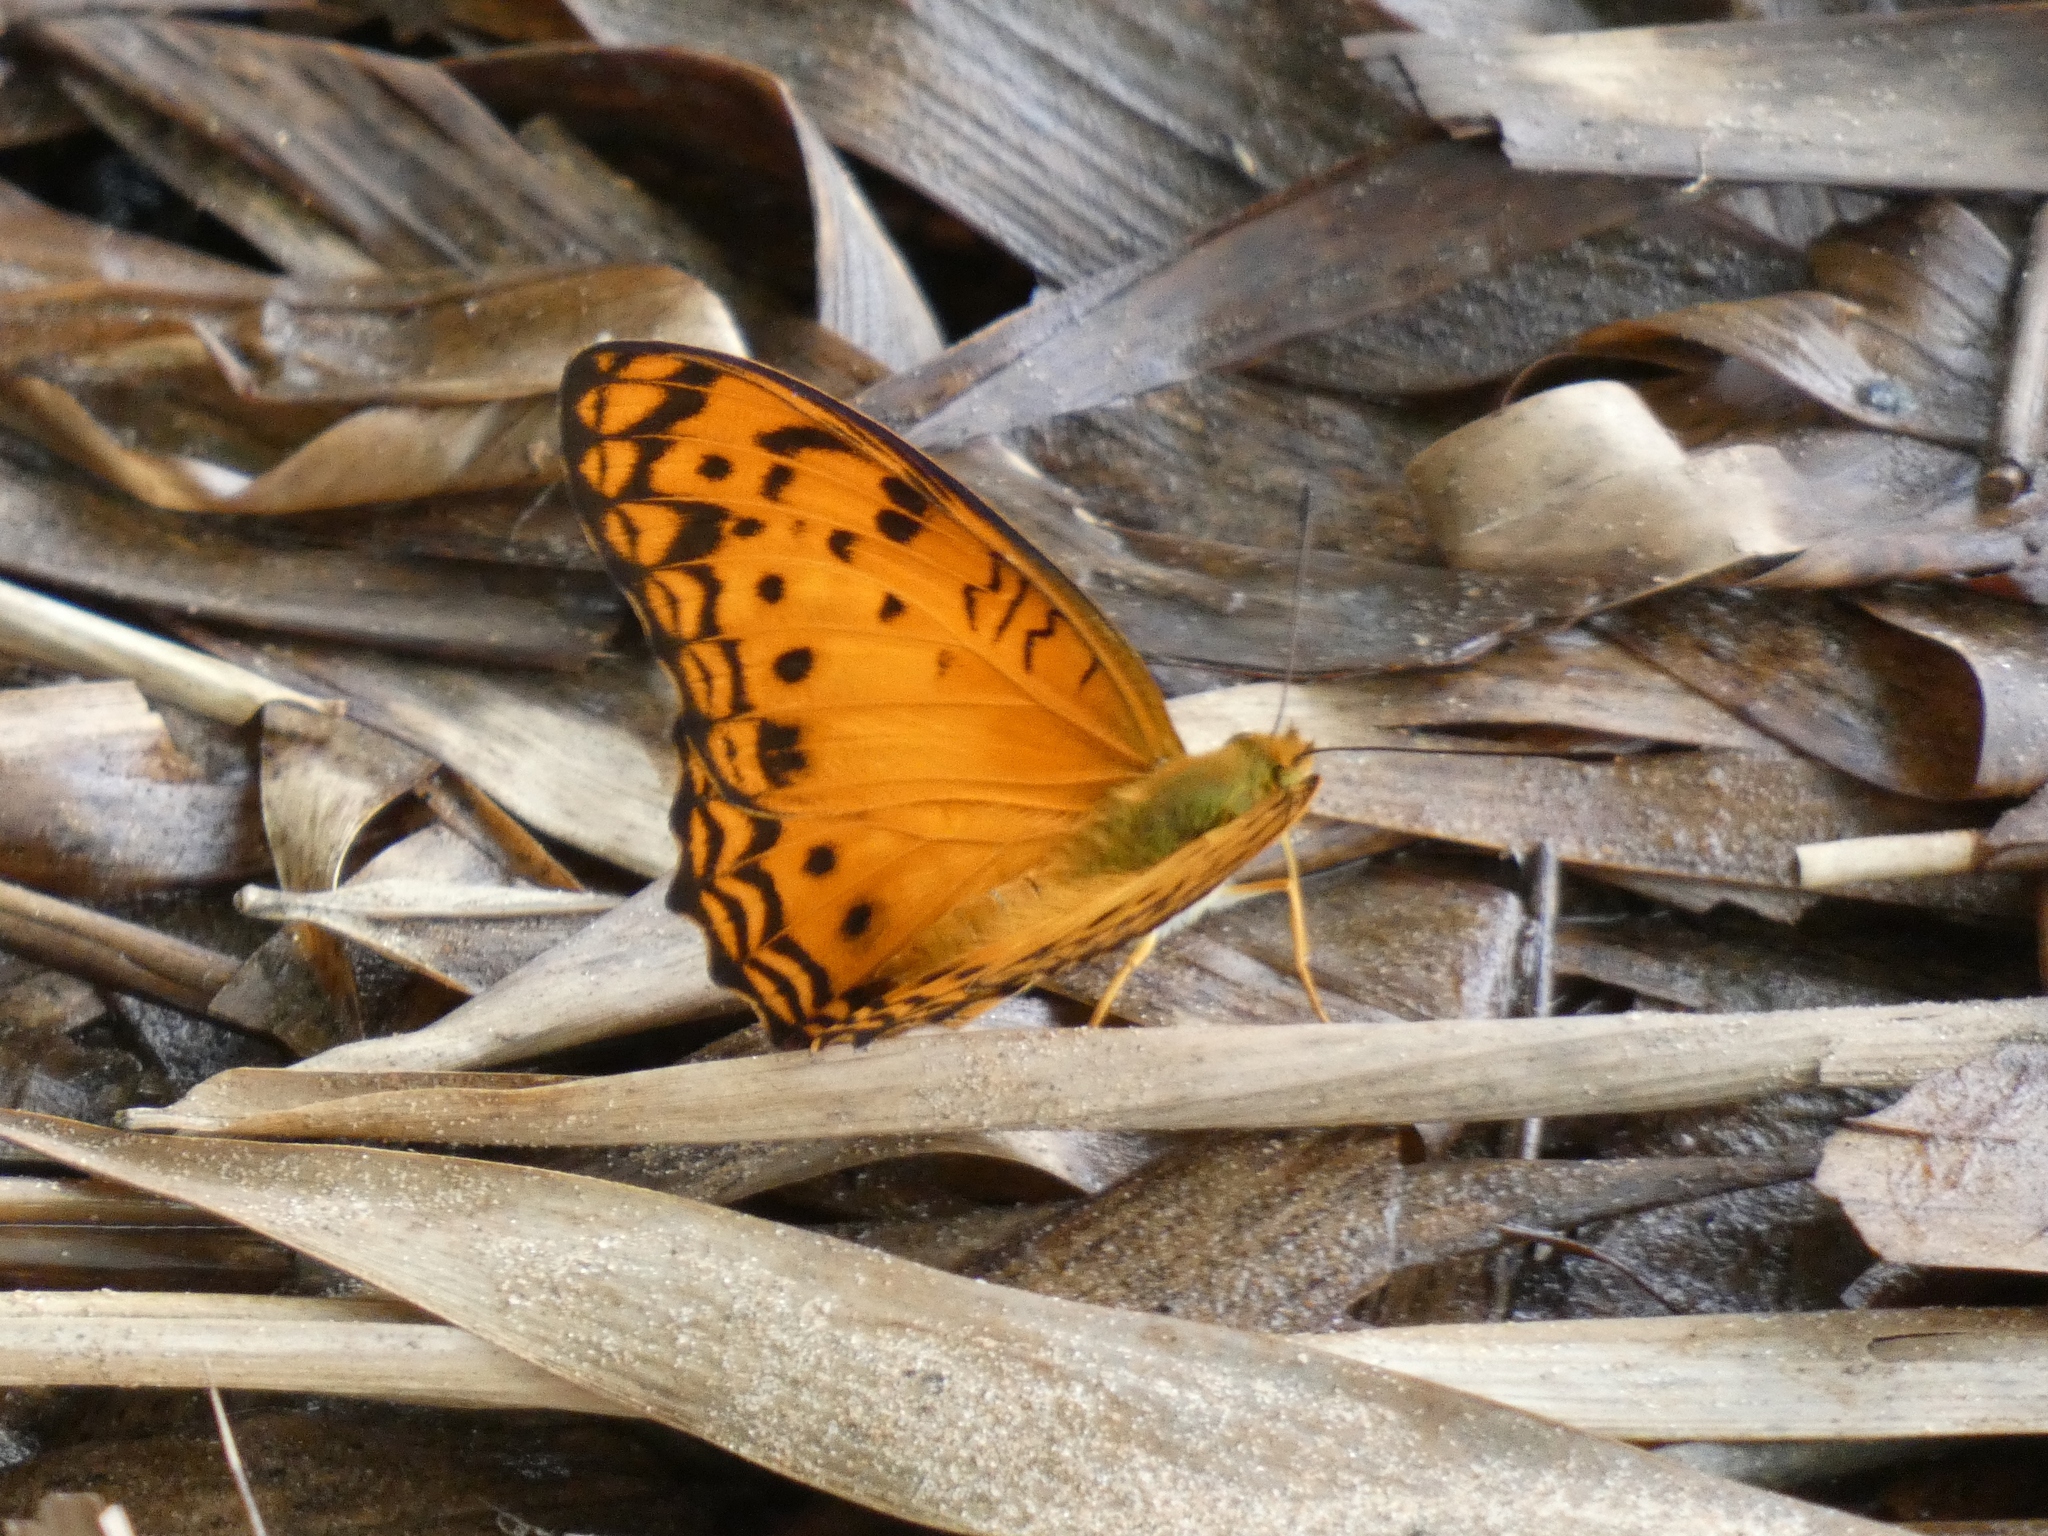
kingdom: Animalia
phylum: Arthropoda
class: Insecta
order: Lepidoptera
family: Nymphalidae
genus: Phalanta
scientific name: Phalanta columbina
